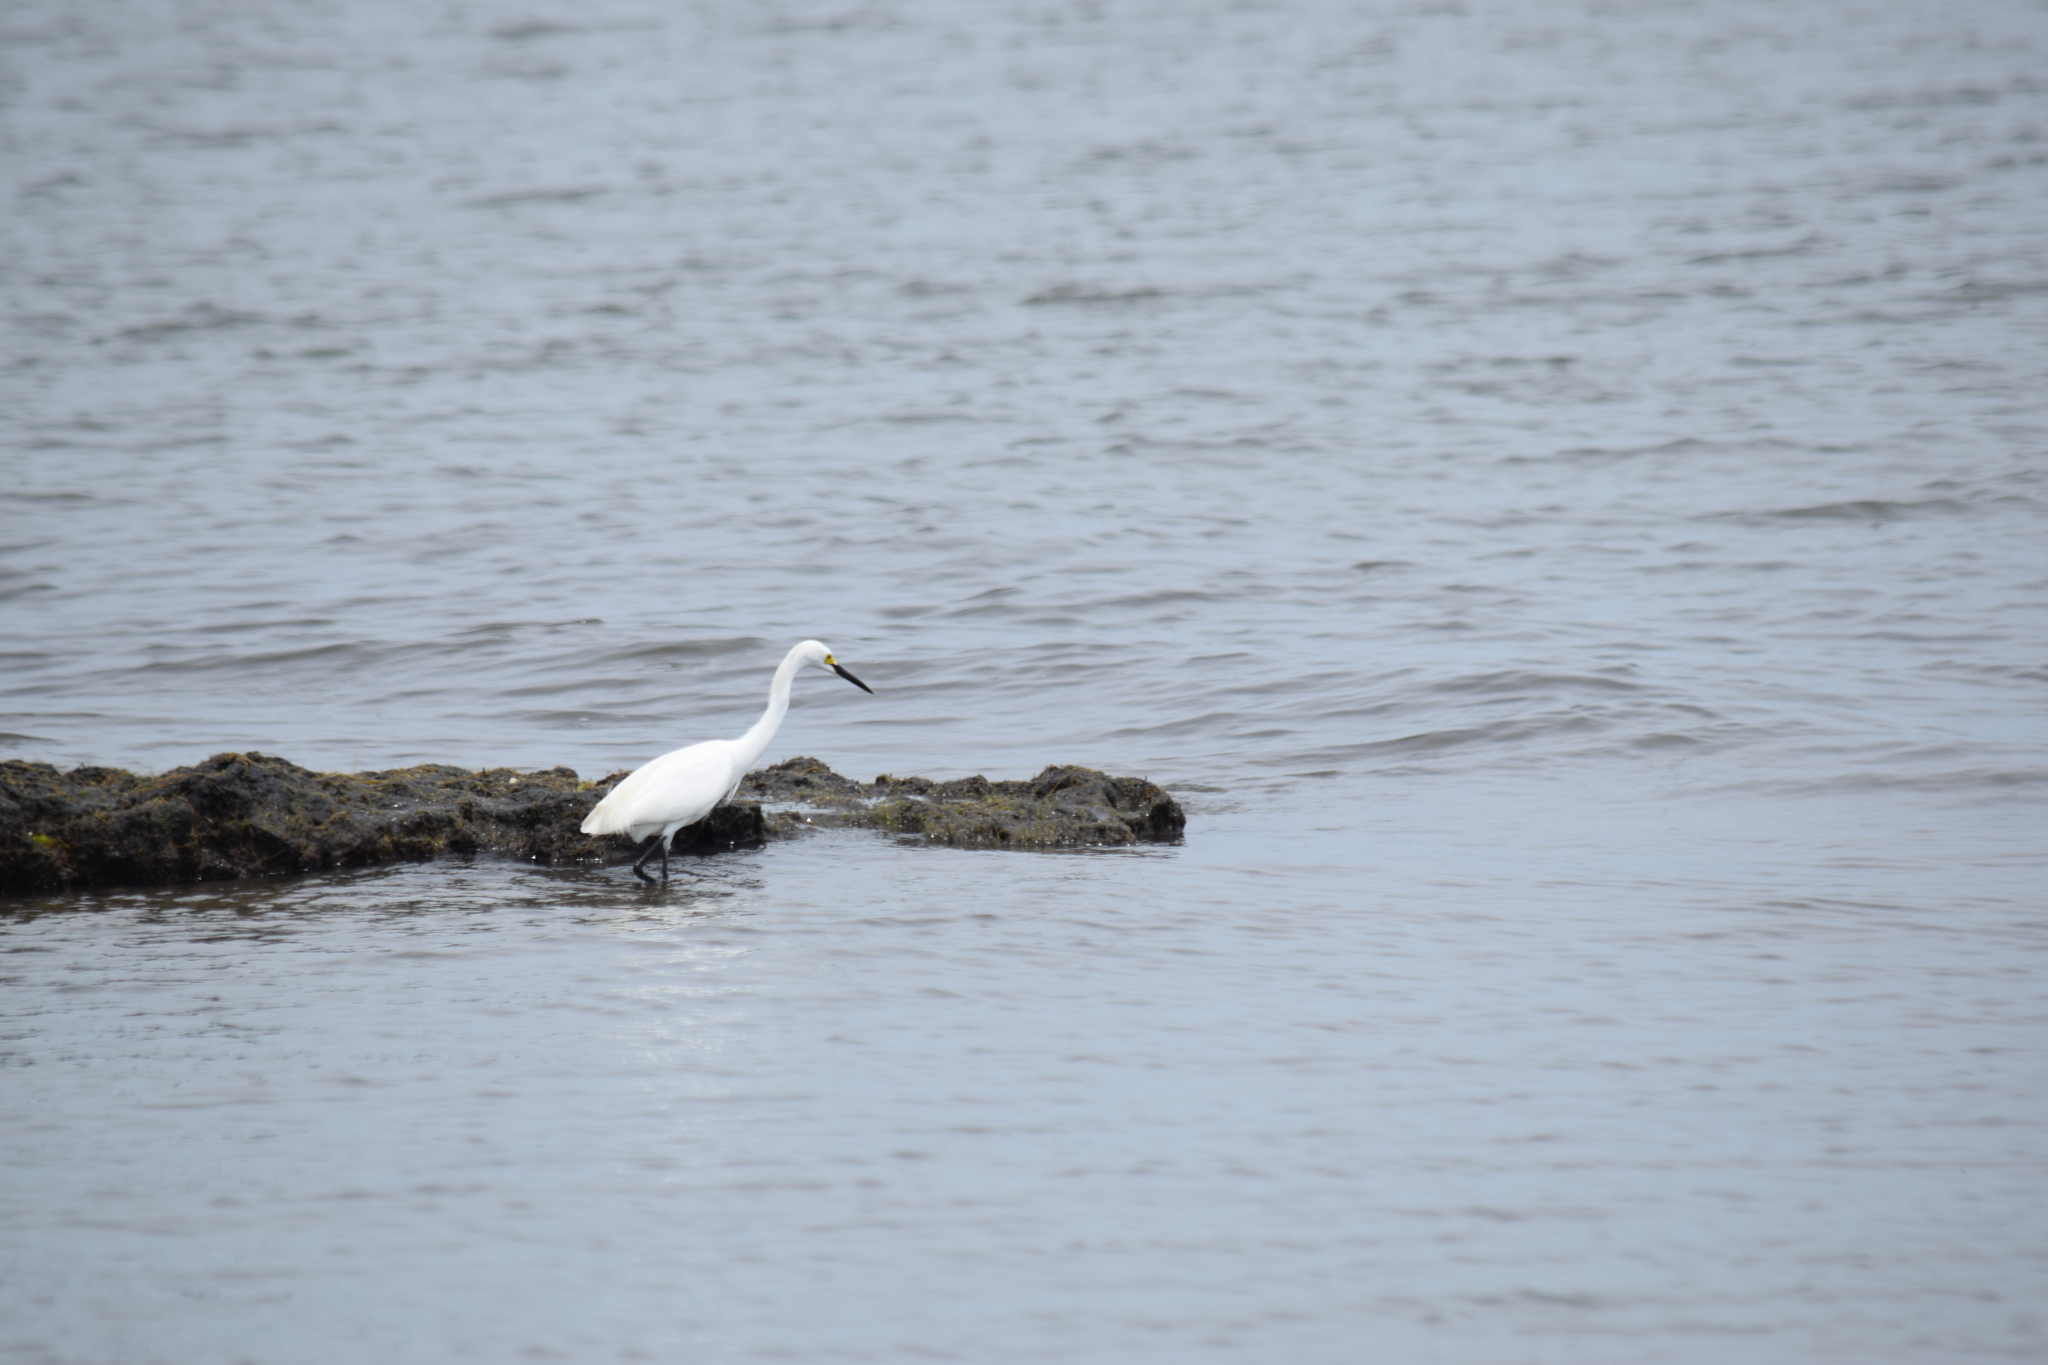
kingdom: Animalia
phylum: Chordata
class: Aves
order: Pelecaniformes
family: Ardeidae
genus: Egretta
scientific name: Egretta thula
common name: Snowy egret
